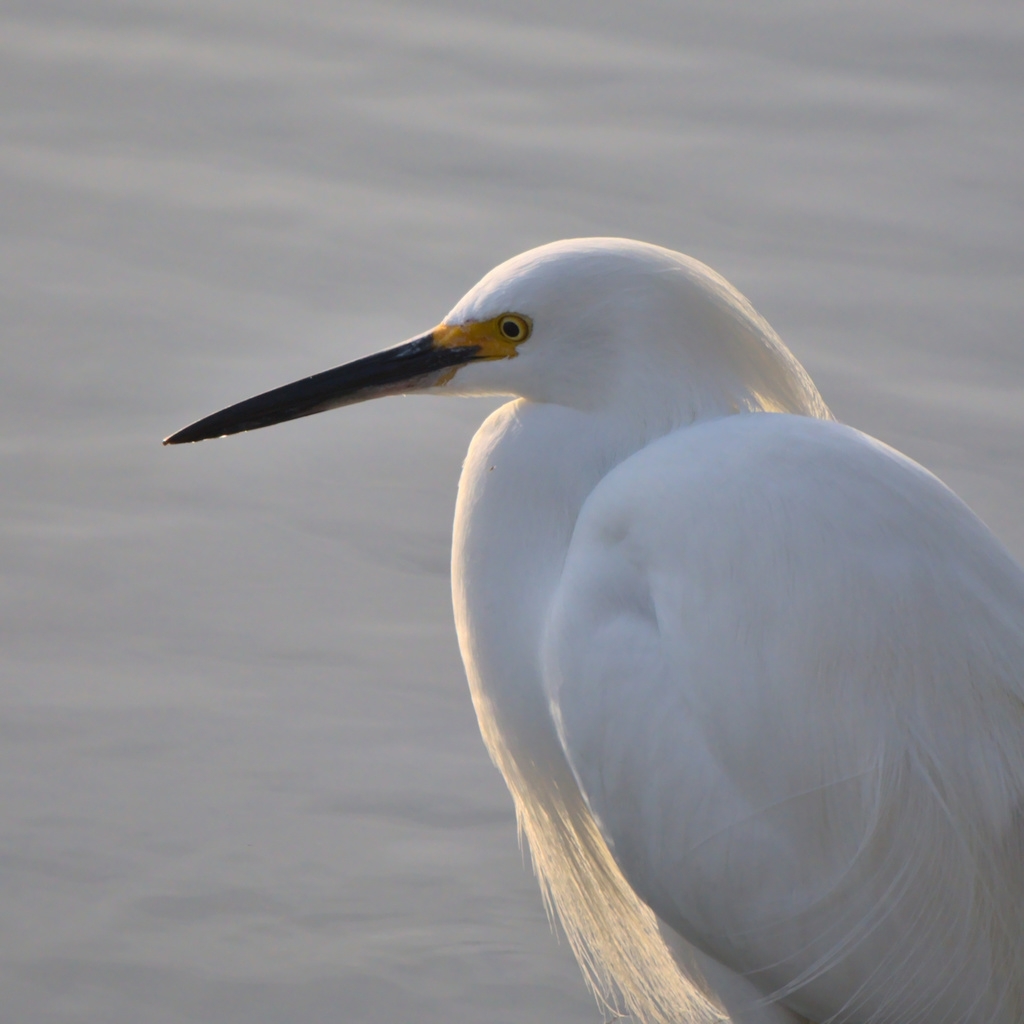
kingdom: Animalia
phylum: Chordata
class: Aves
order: Pelecaniformes
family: Ardeidae
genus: Egretta
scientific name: Egretta thula
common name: Snowy egret
